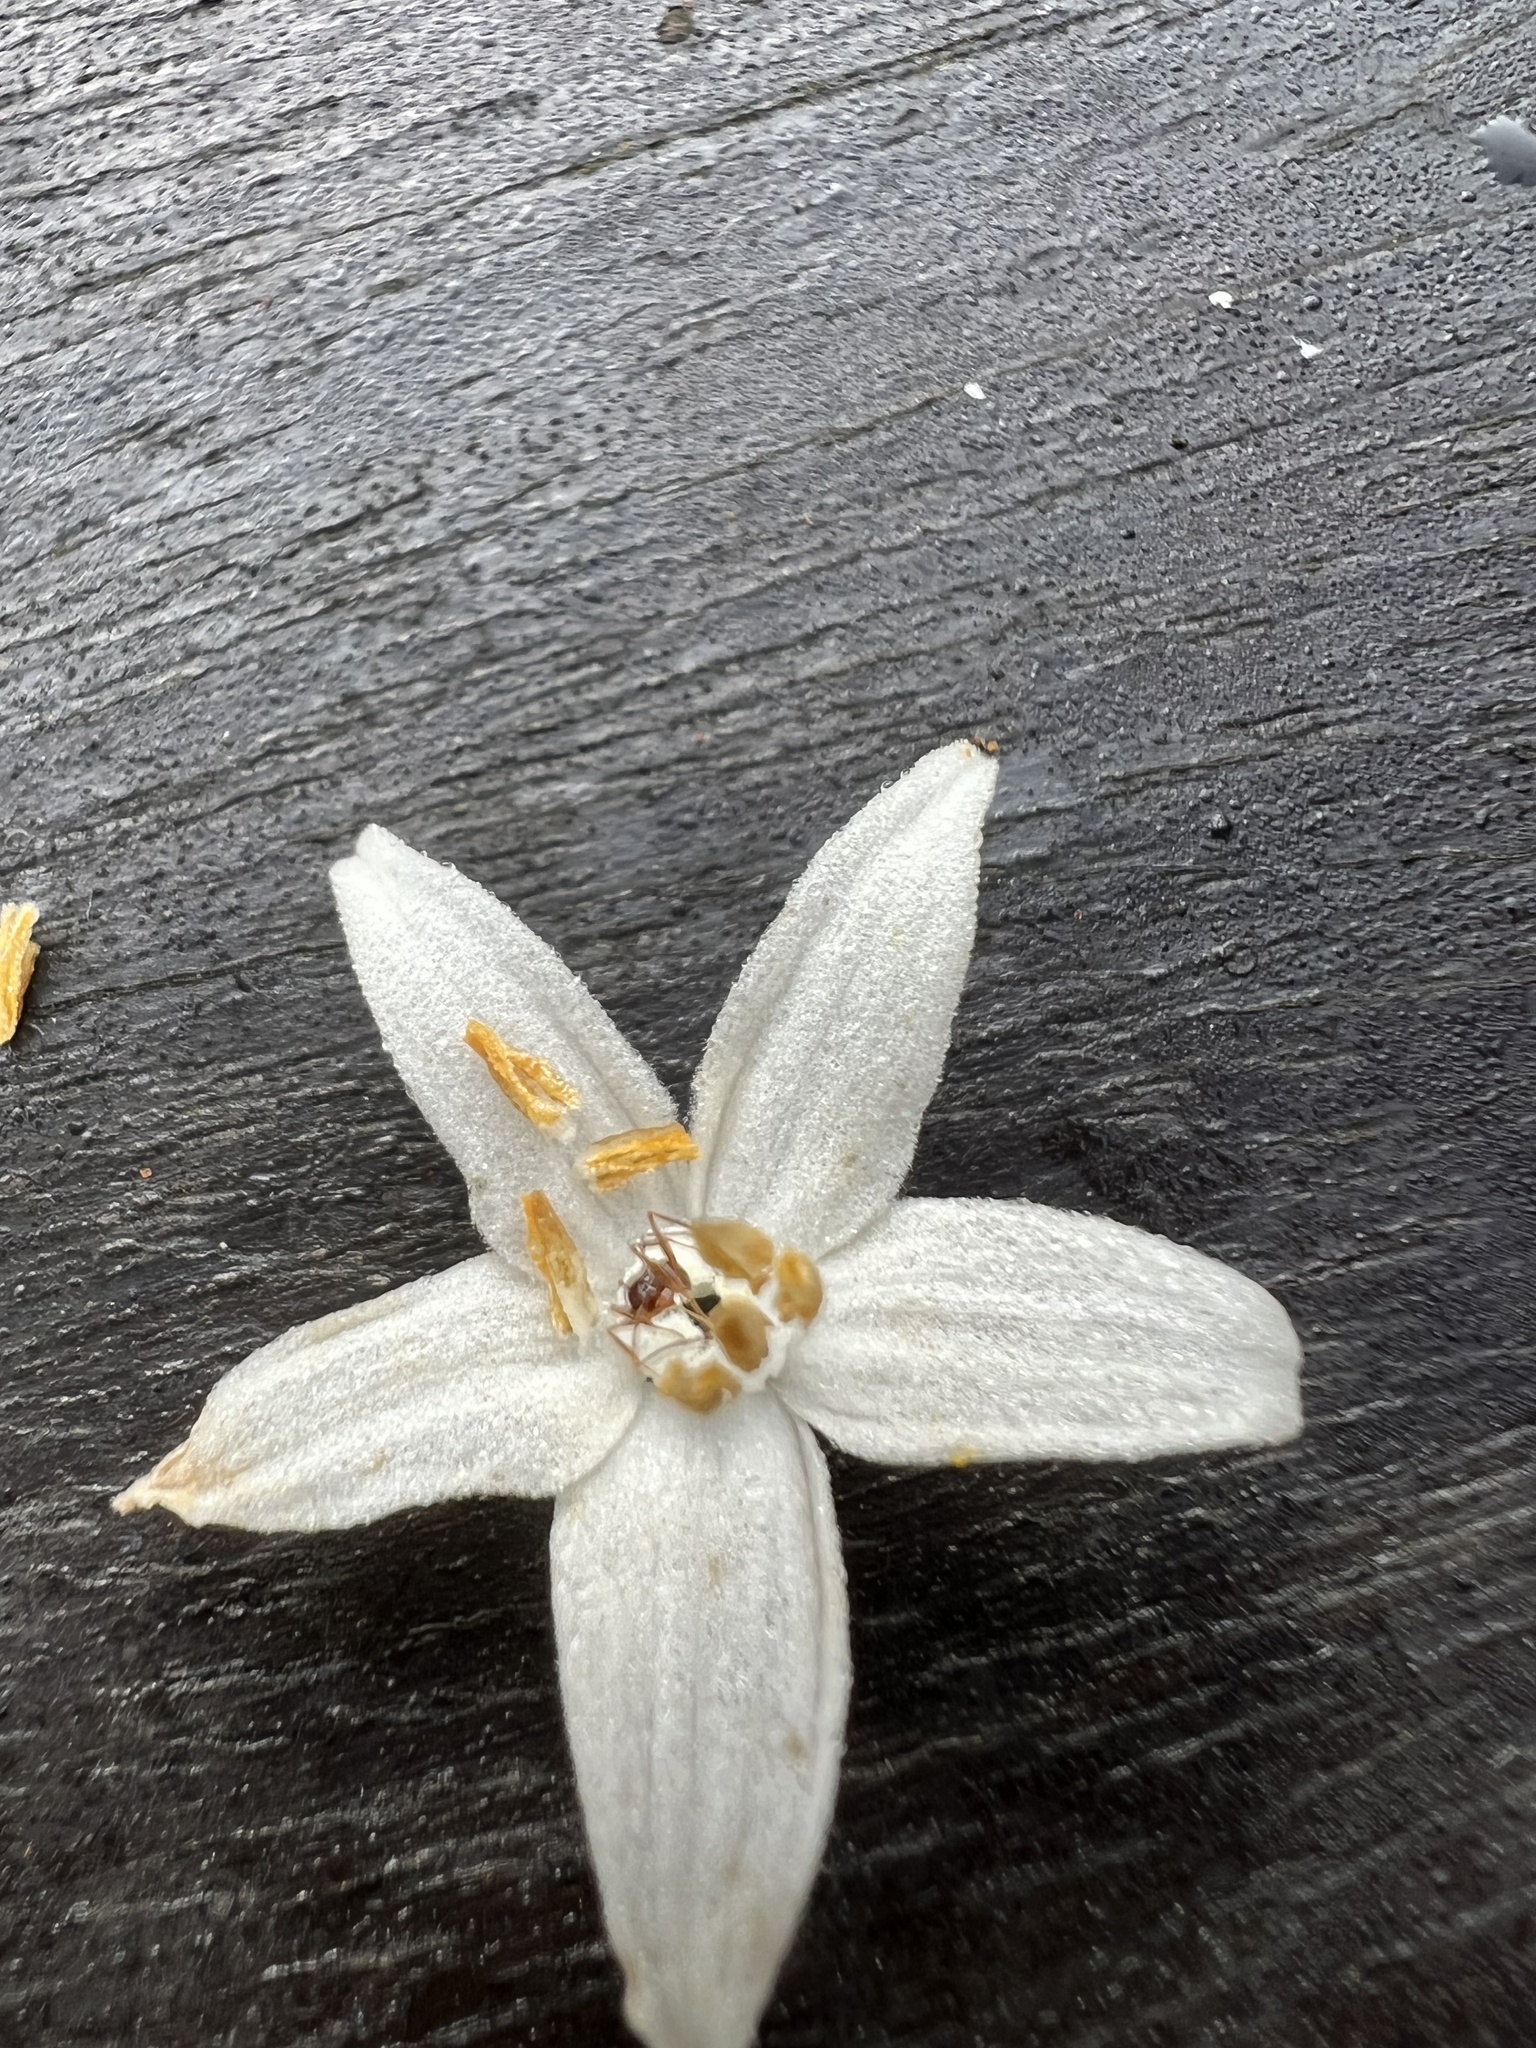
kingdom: Plantae
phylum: Tracheophyta
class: Magnoliopsida
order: Ericales
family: Styracaceae
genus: Styrax
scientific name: Styrax formosanus
